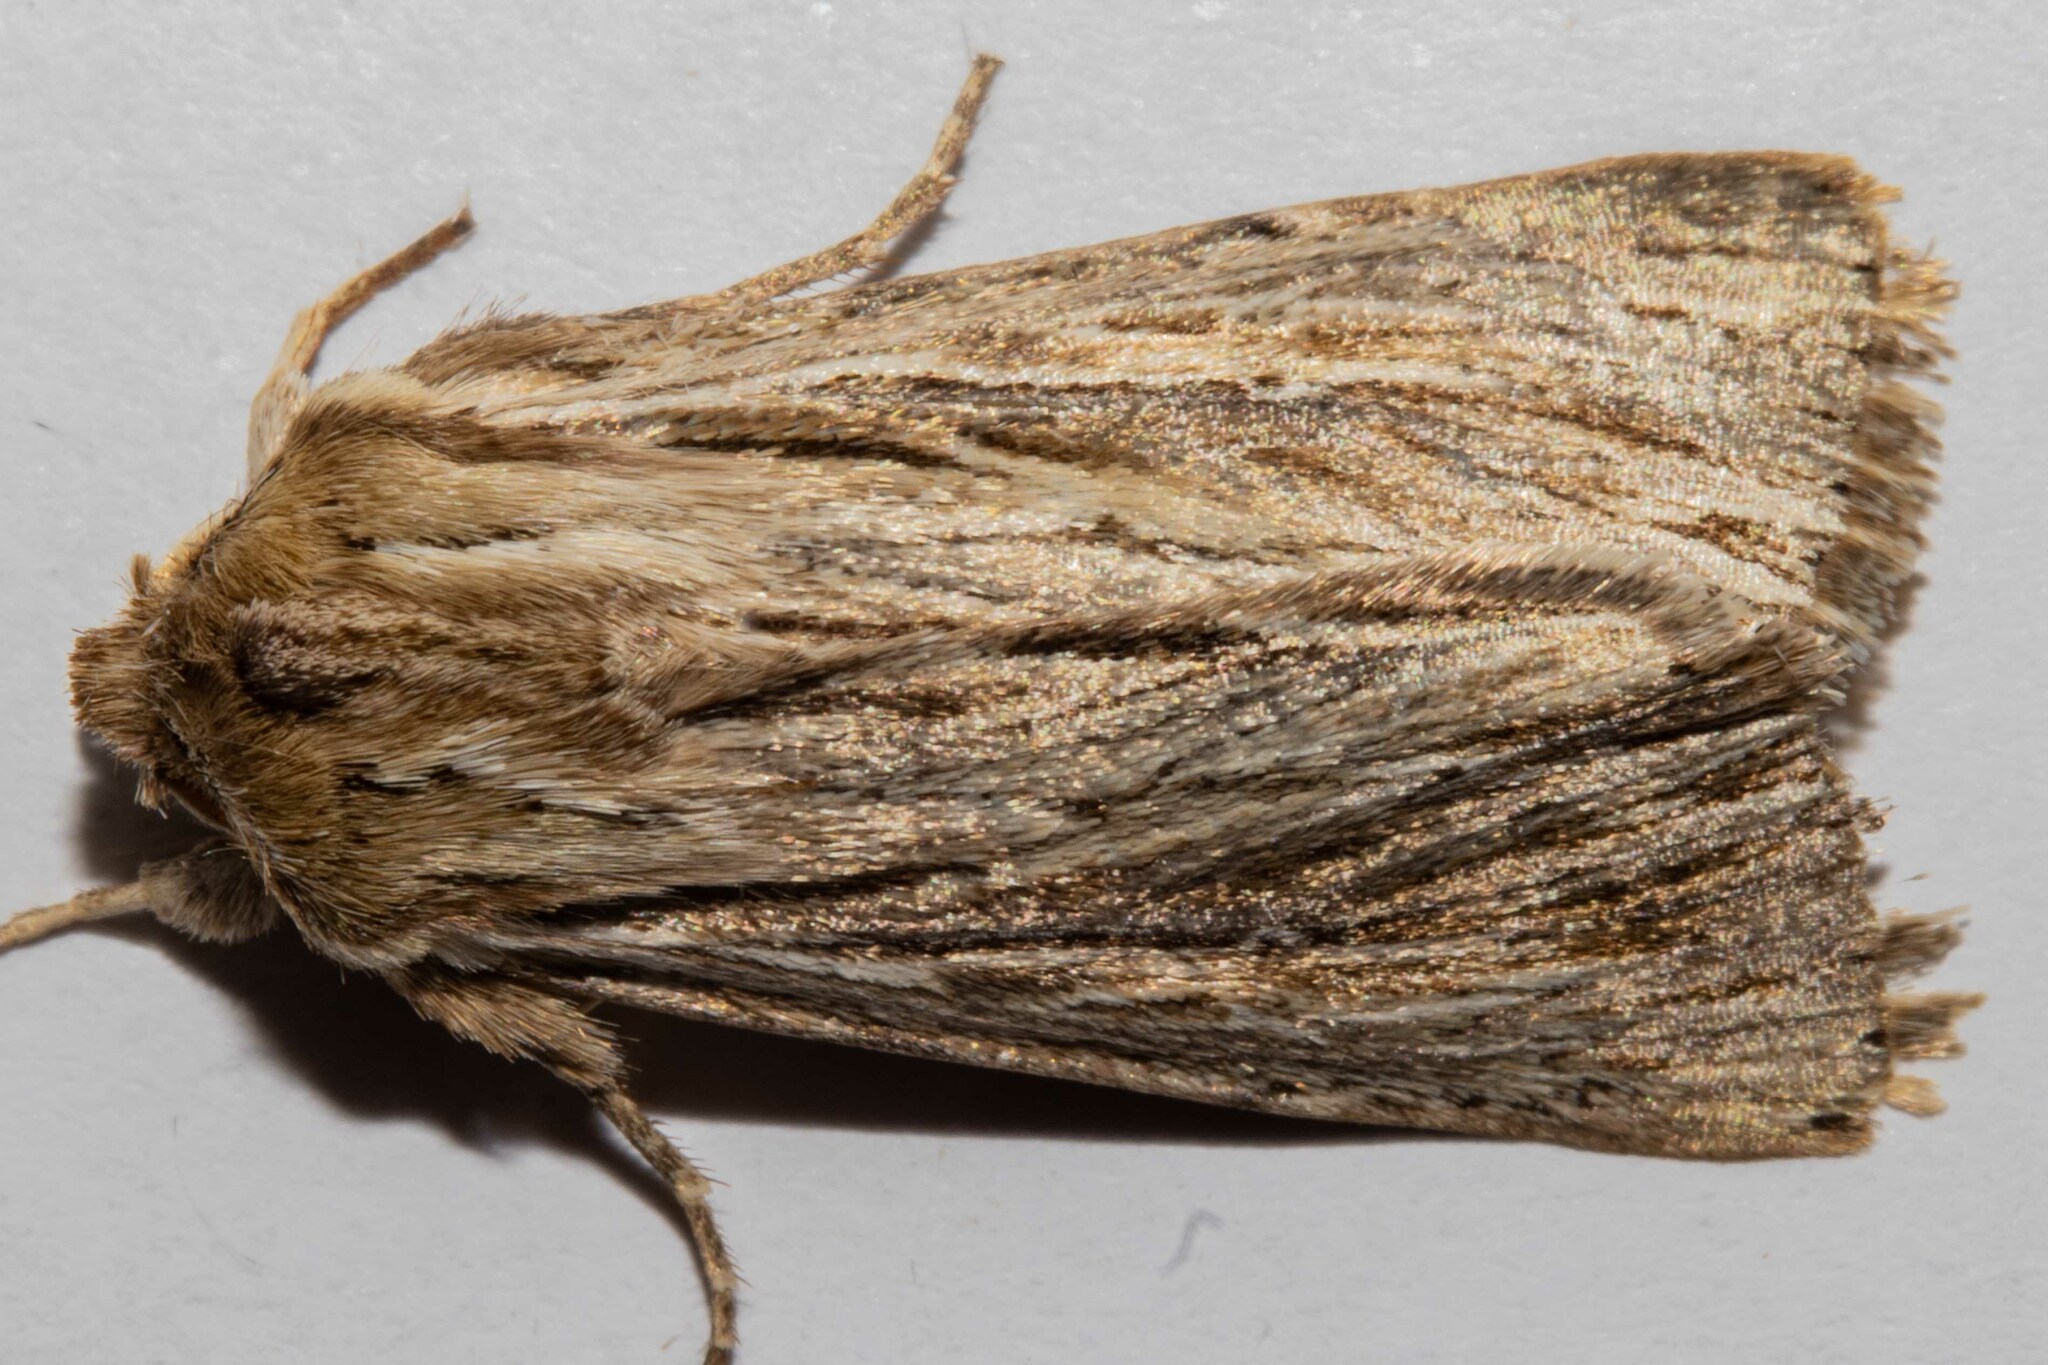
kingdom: Animalia
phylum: Arthropoda
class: Insecta
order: Lepidoptera
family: Noctuidae
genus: Persectania
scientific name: Persectania aversa
